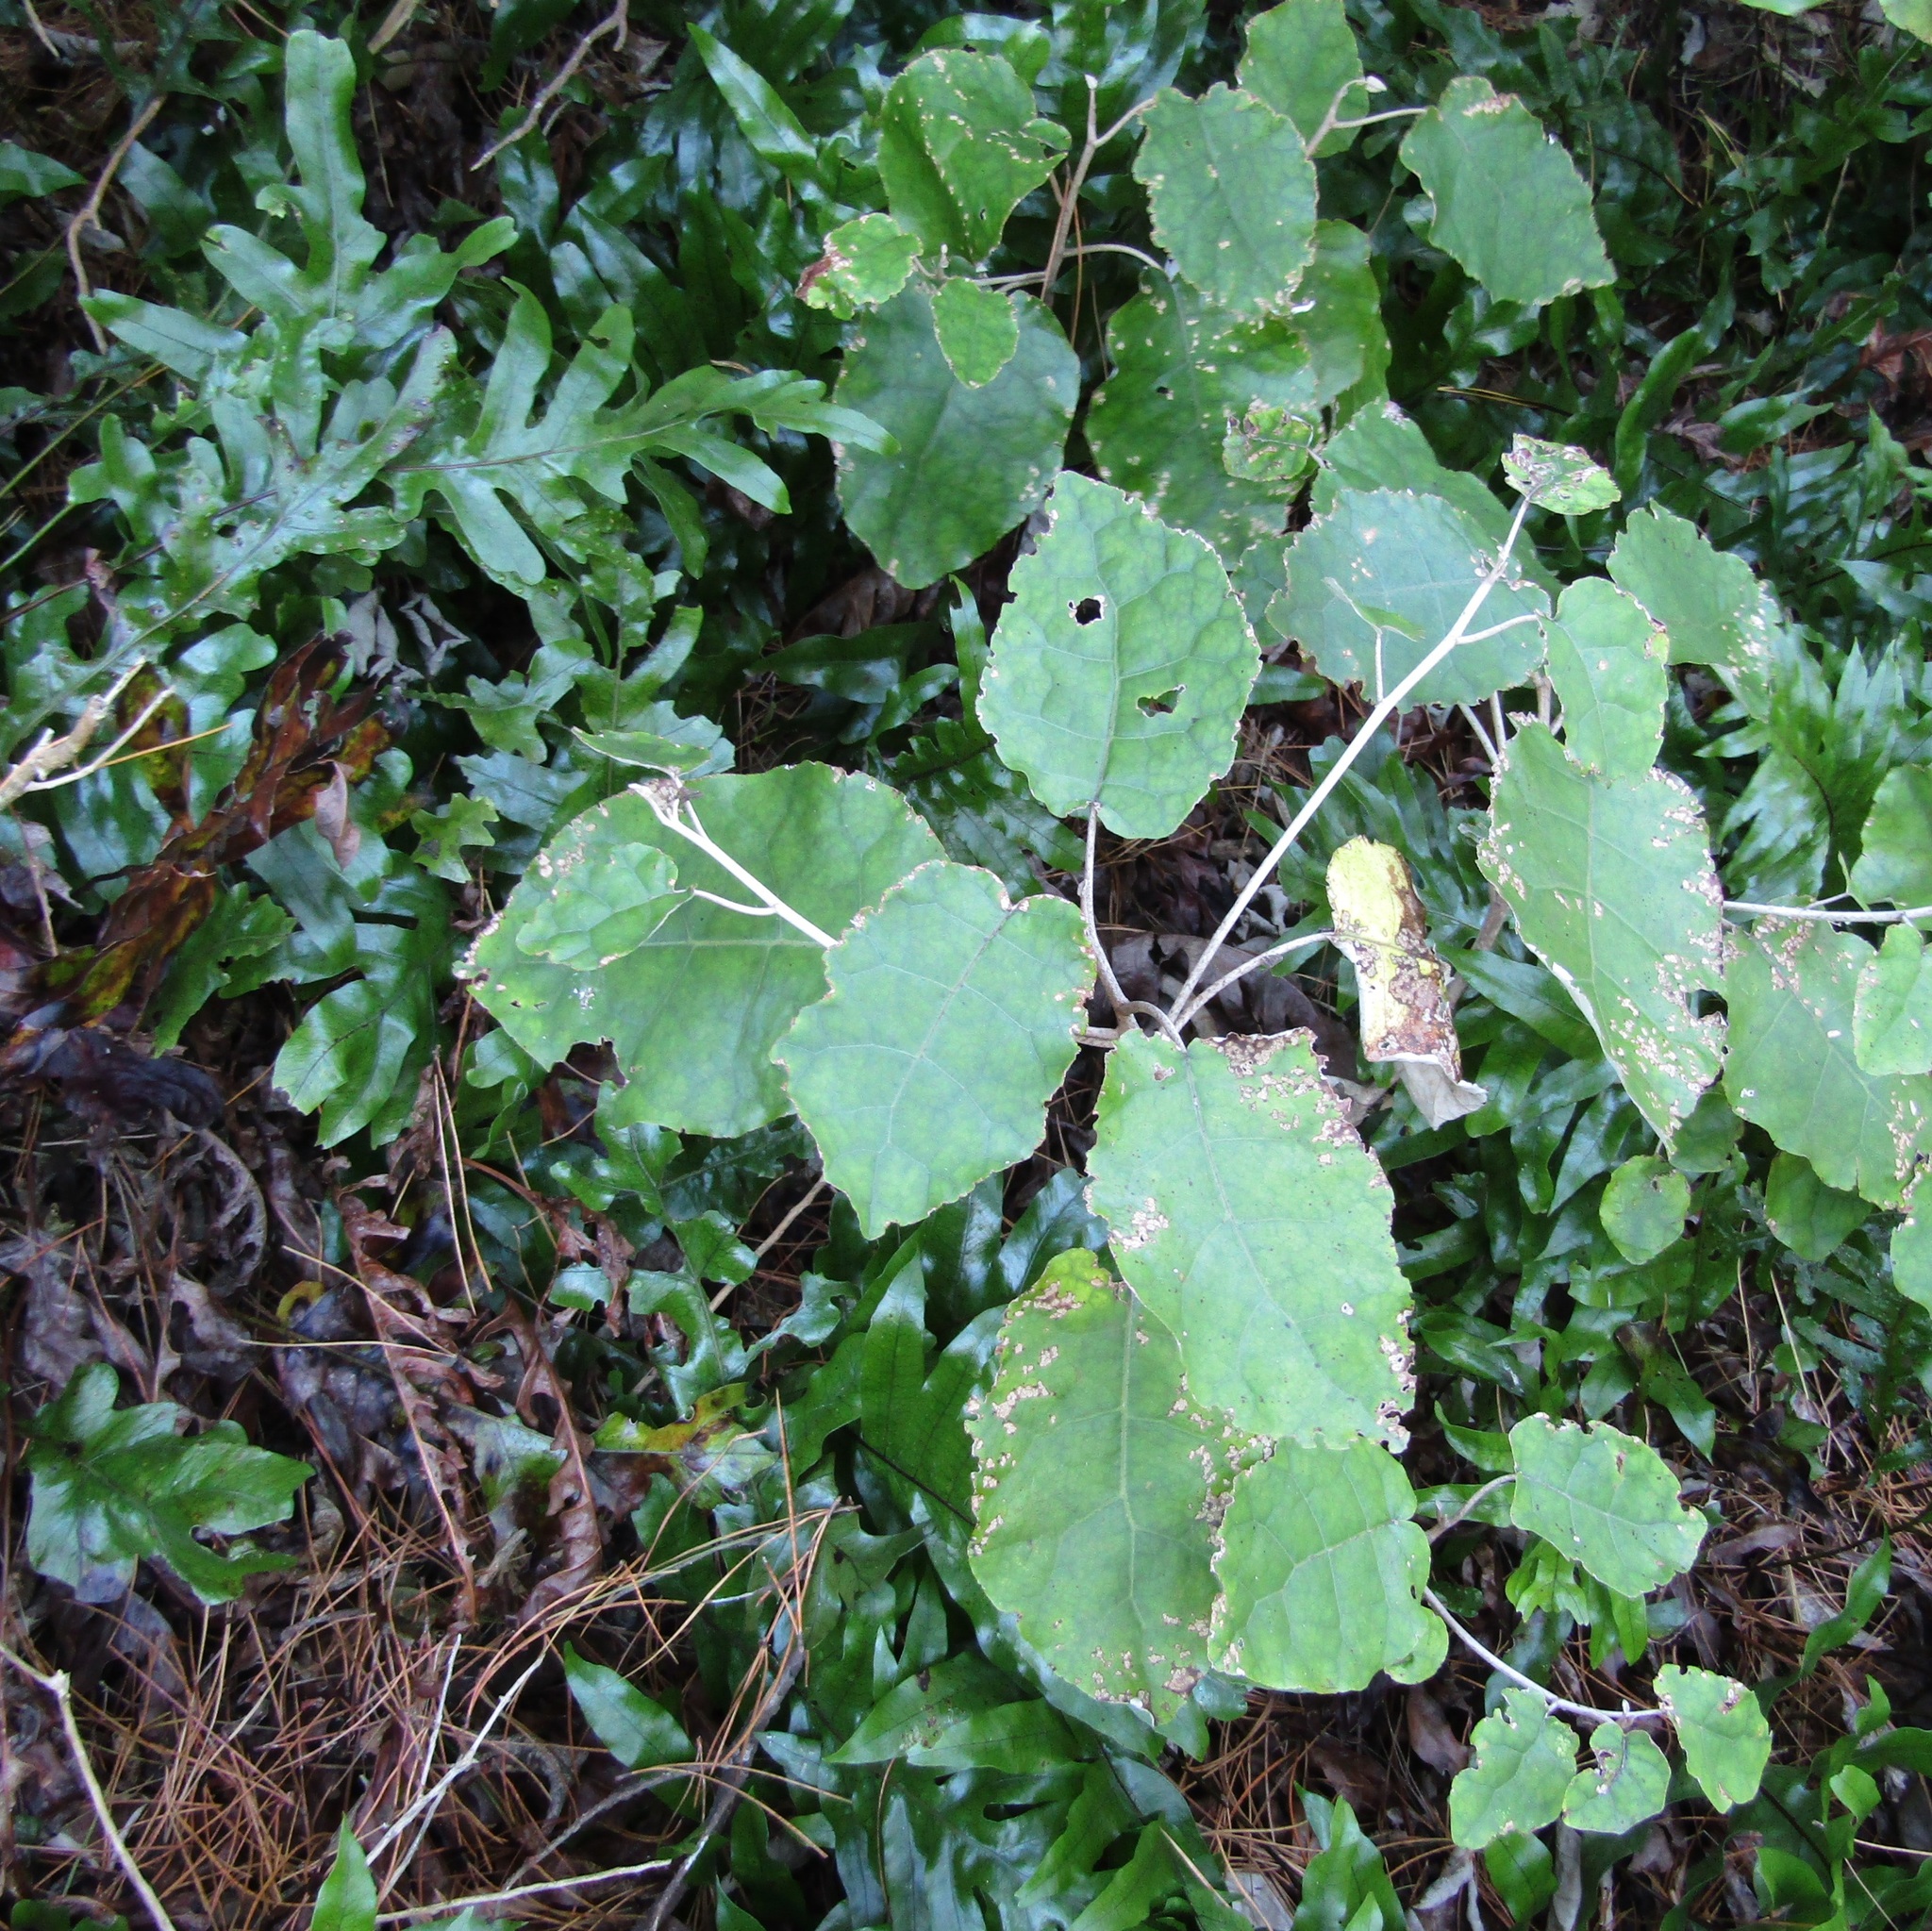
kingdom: Plantae
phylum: Tracheophyta
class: Magnoliopsida
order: Asterales
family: Asteraceae
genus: Brachyglottis
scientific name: Brachyglottis repanda
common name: Hedge ragwort
